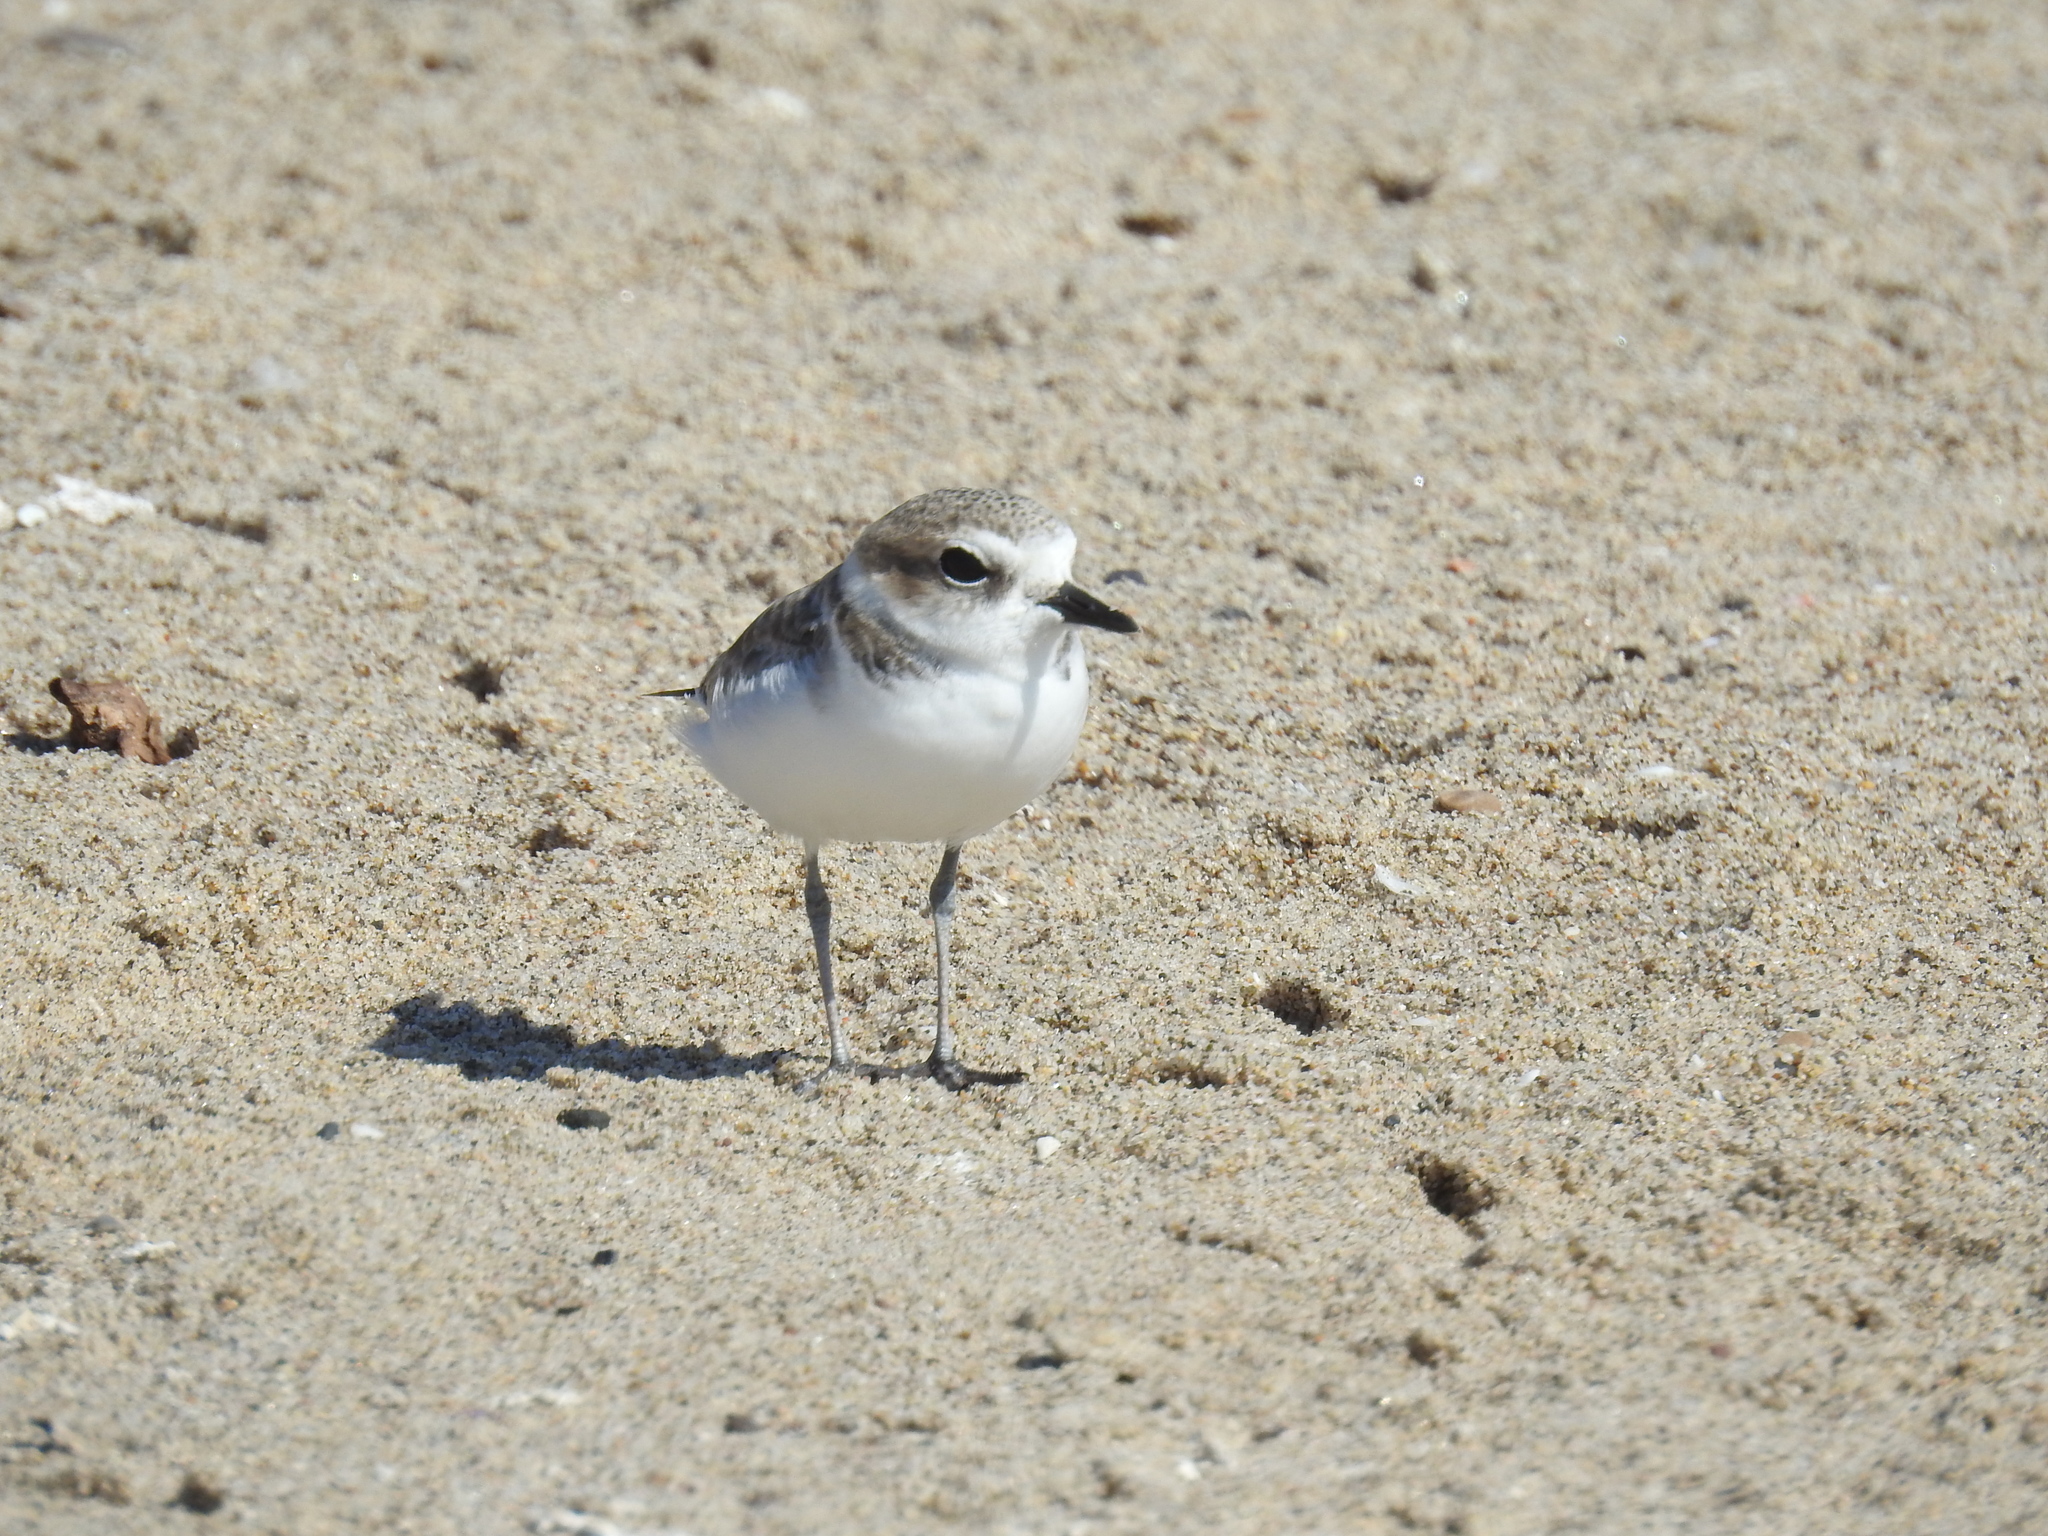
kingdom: Animalia
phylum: Chordata
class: Aves
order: Charadriiformes
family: Charadriidae
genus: Anarhynchus
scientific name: Anarhynchus
